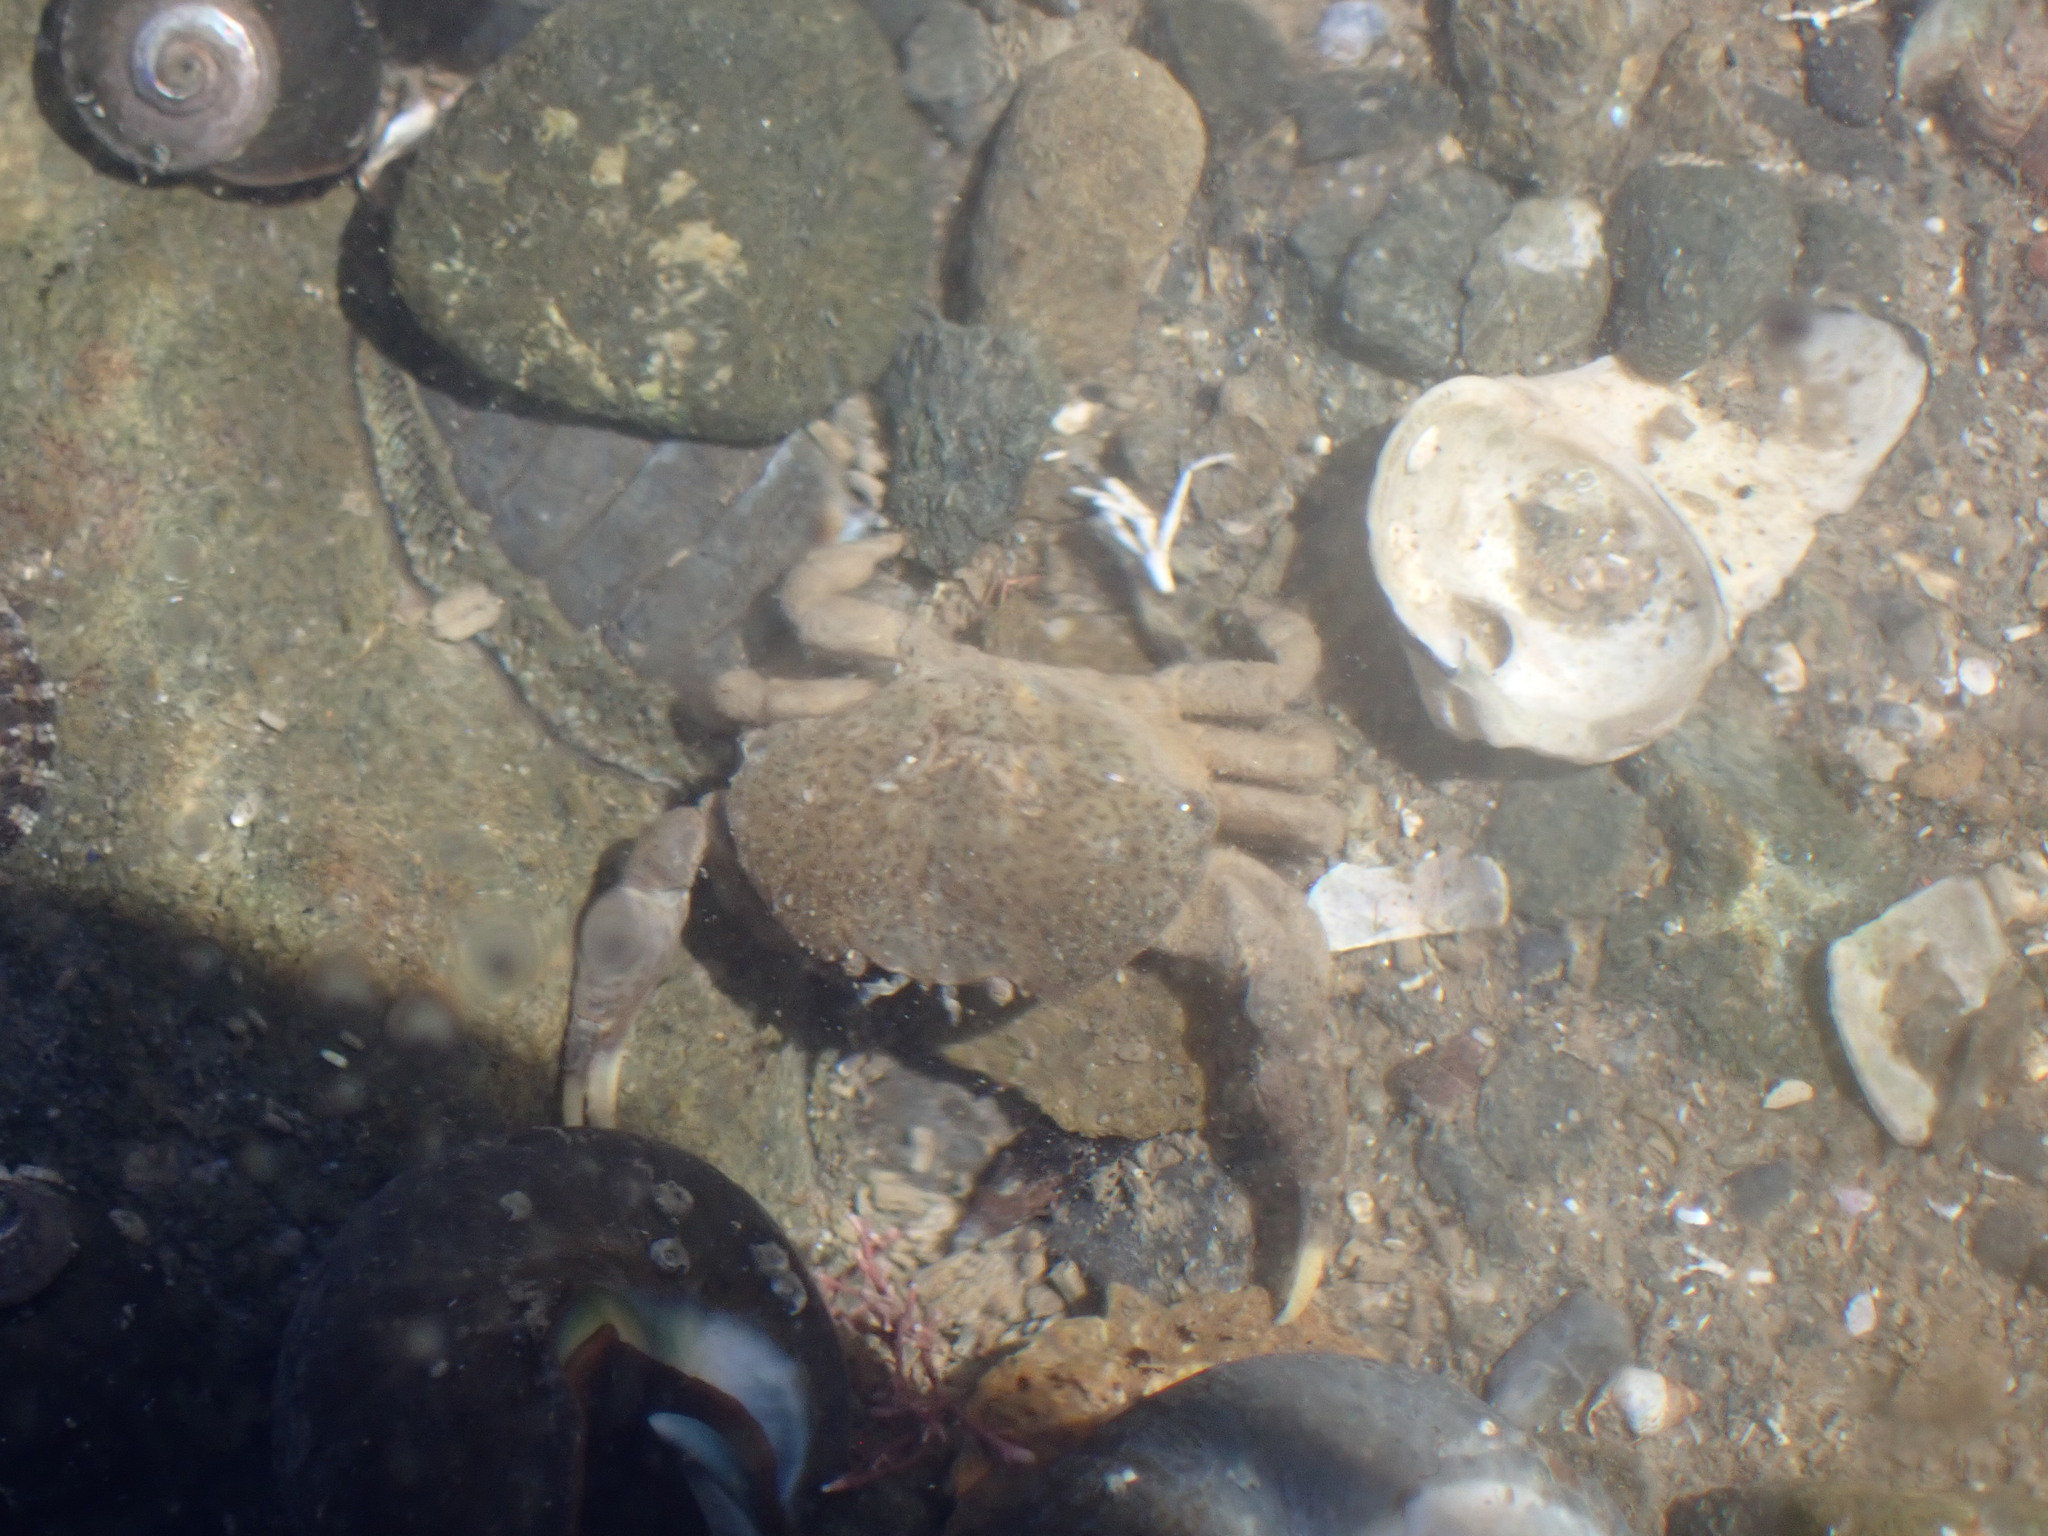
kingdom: Animalia
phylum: Arthropoda
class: Malacostraca
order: Decapoda
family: Heteroziidae
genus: Heterozius
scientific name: Heterozius rotundifrons
